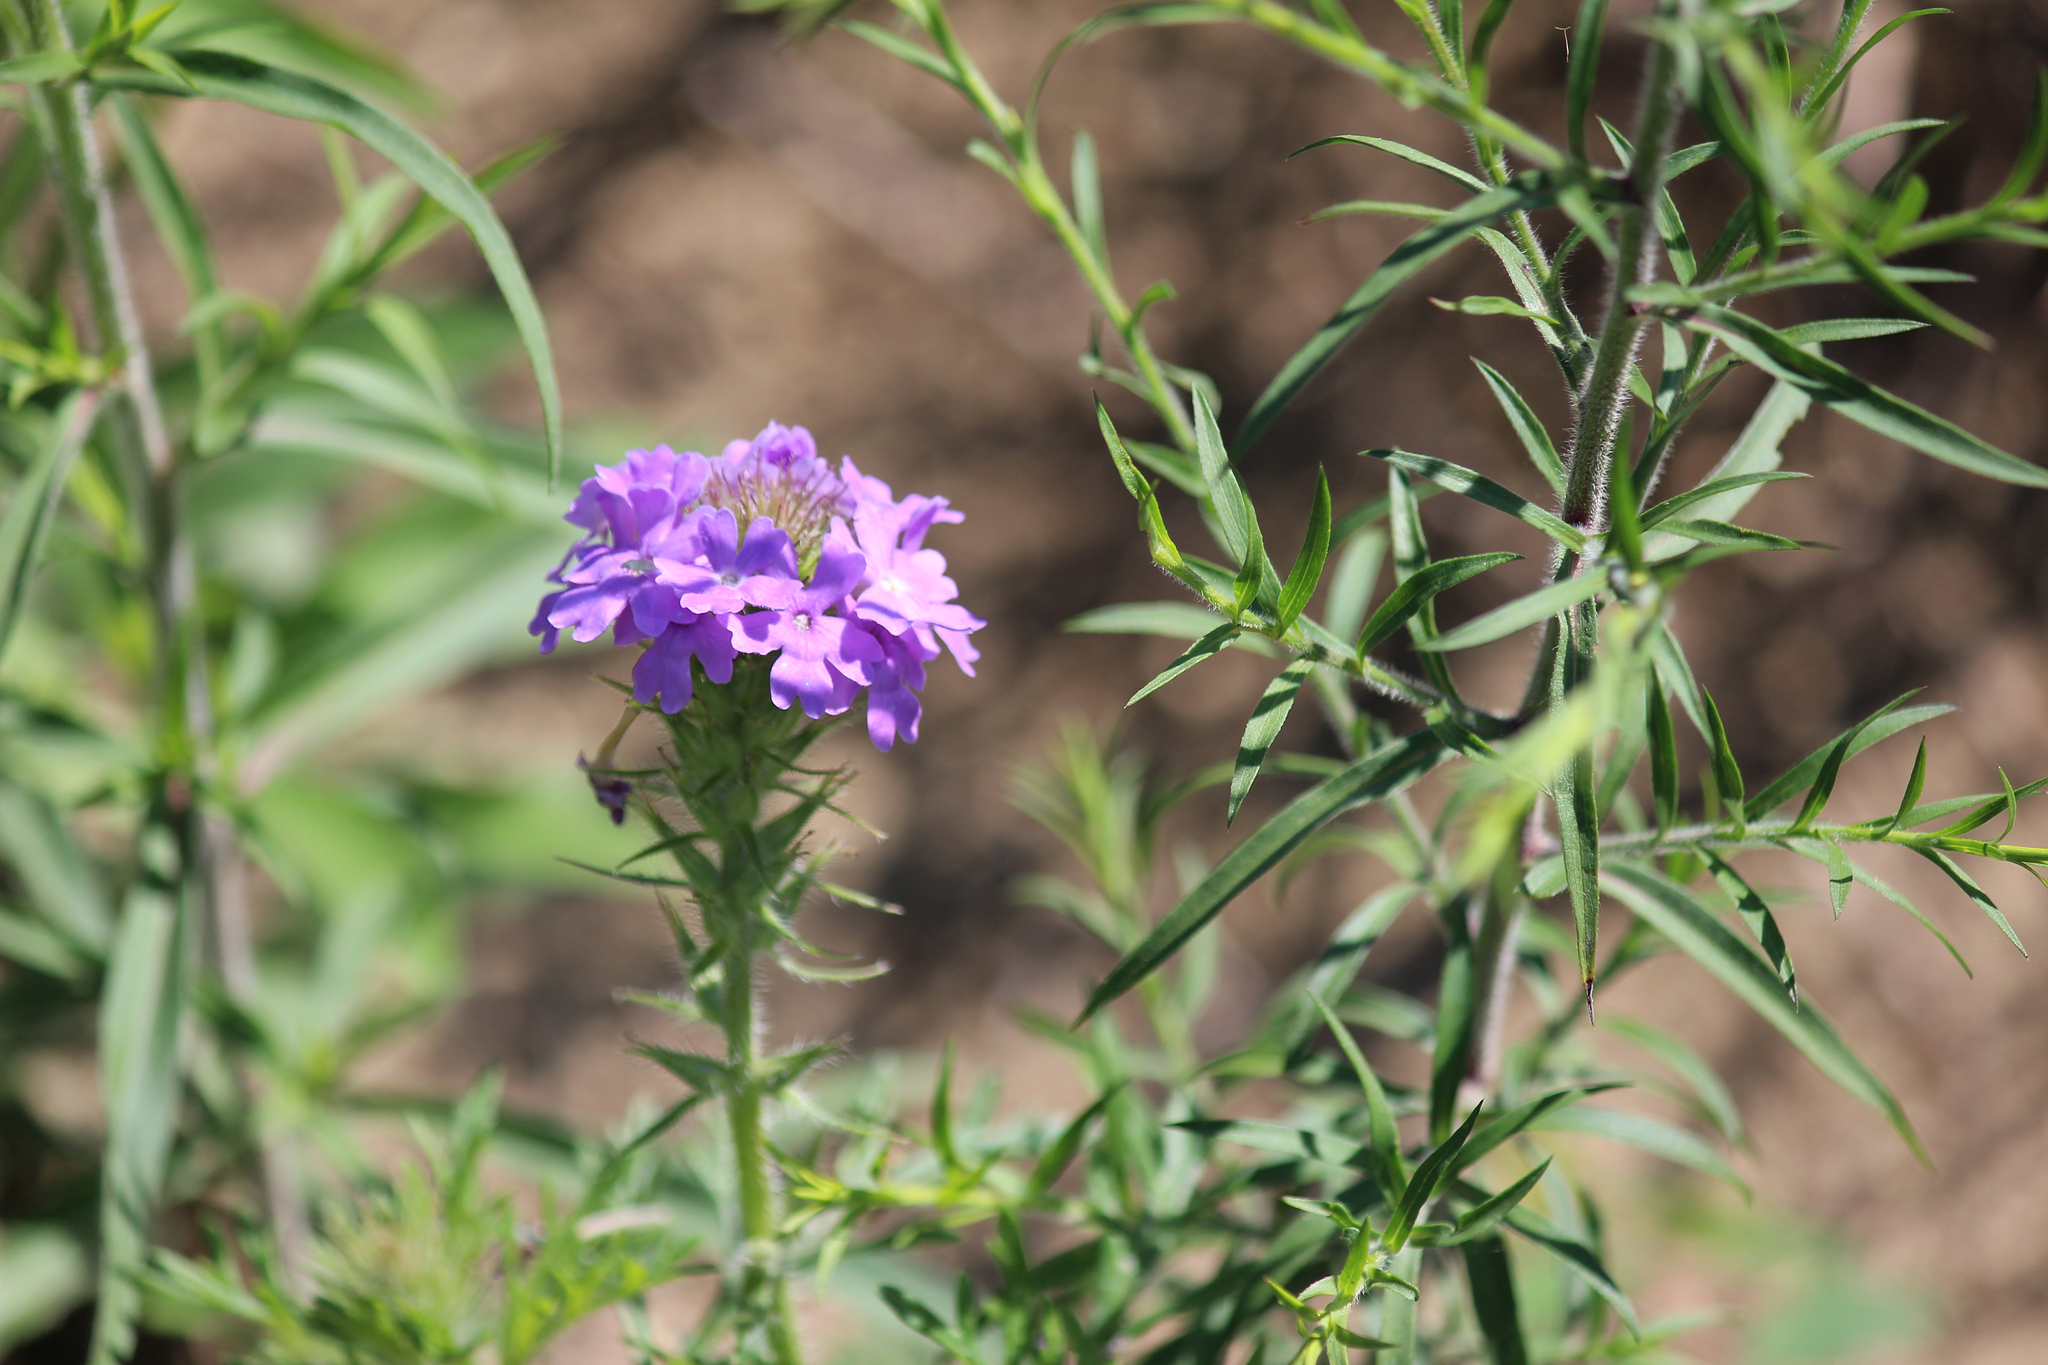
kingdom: Plantae
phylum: Tracheophyta
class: Magnoliopsida
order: Lamiales
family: Verbenaceae
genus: Verbena
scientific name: Verbena bipinnatifida
